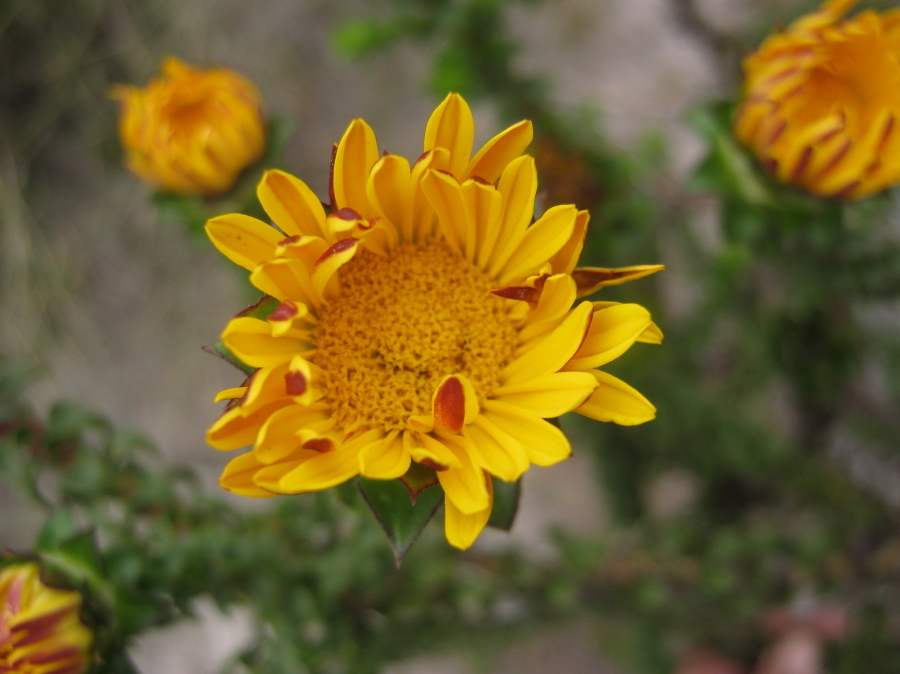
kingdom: Plantae
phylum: Tracheophyta
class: Magnoliopsida
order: Asterales
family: Asteraceae
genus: Oedera
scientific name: Oedera imbricata
